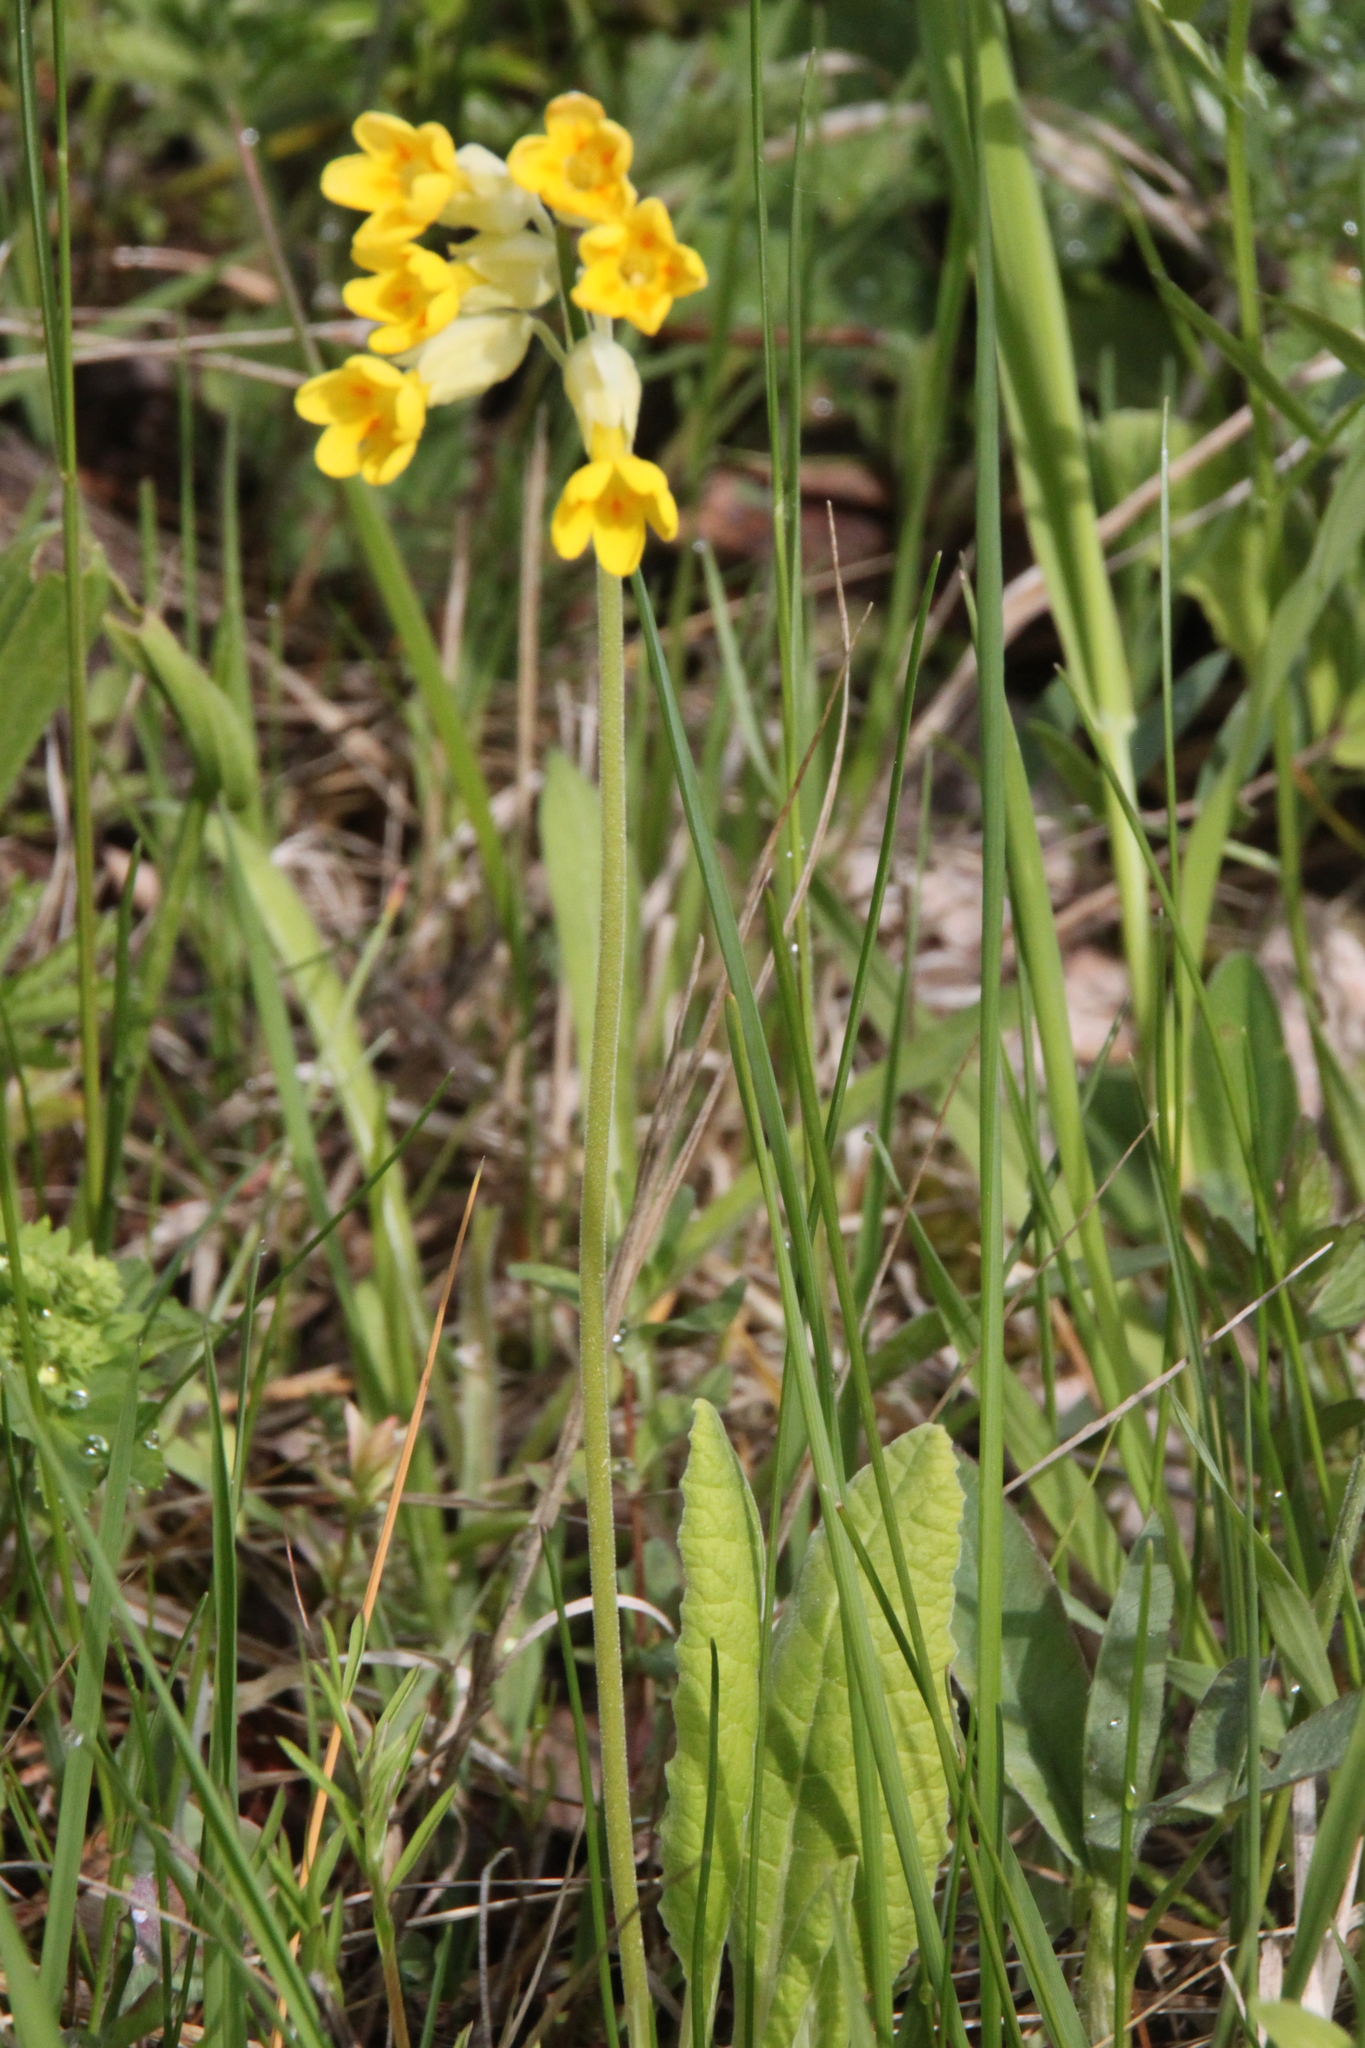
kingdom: Plantae
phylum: Tracheophyta
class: Magnoliopsida
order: Ericales
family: Primulaceae
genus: Primula
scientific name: Primula veris
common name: Cowslip
